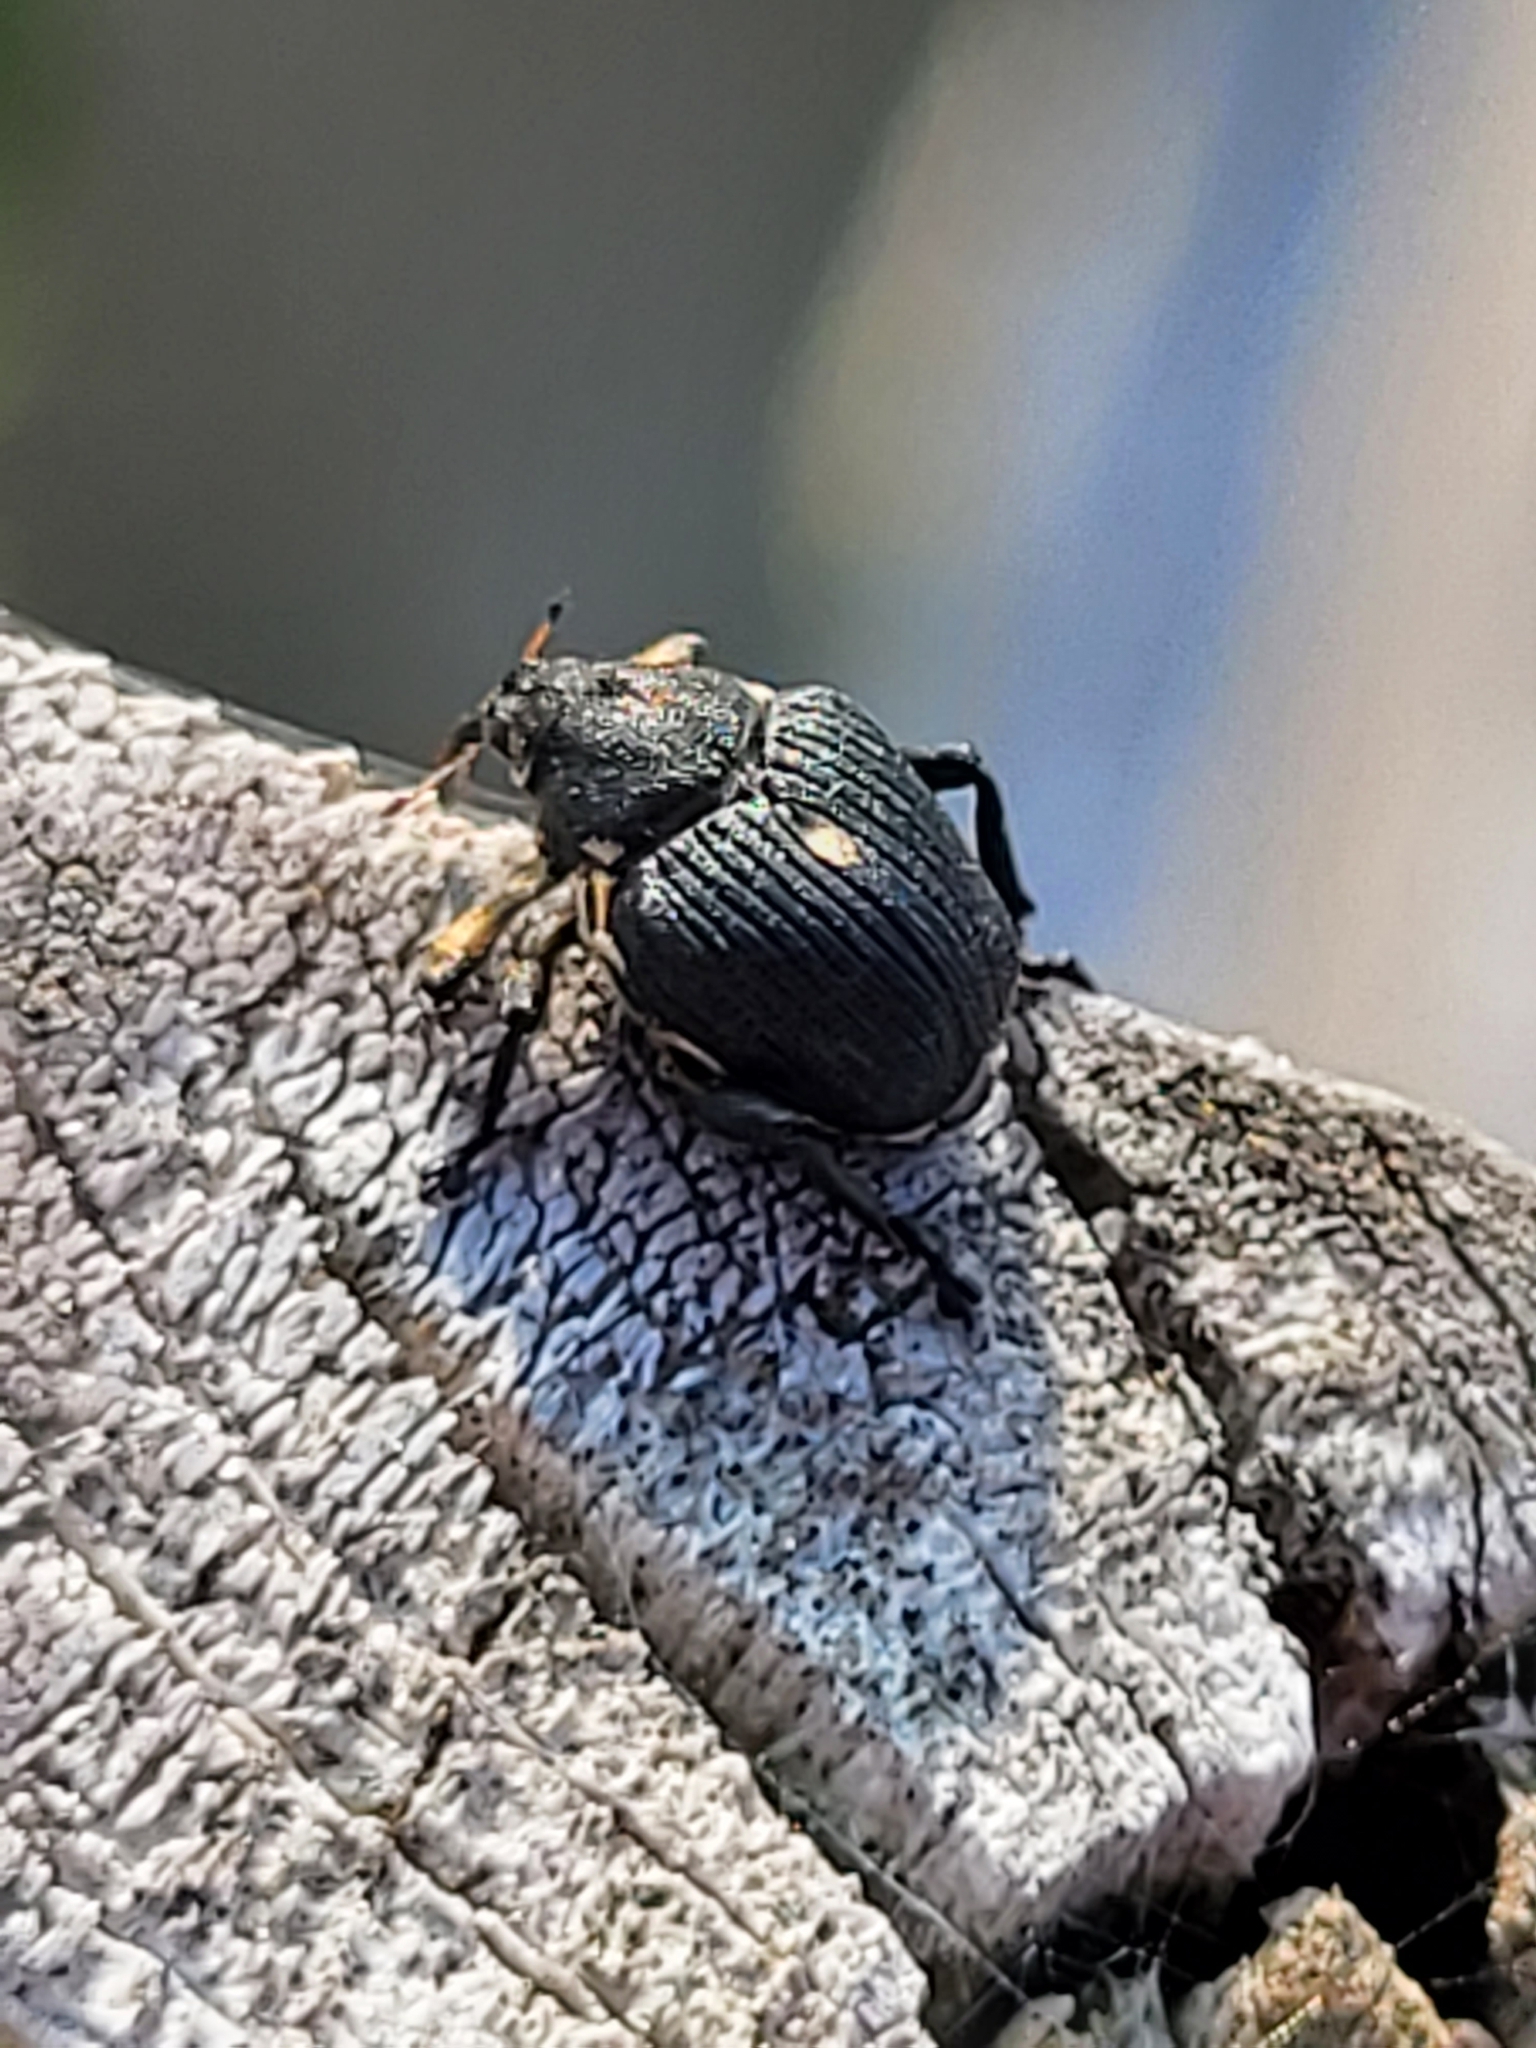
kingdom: Animalia
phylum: Arthropoda
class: Insecta
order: Coleoptera
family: Curculionidae
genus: Mononychus
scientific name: Mononychus punctumalbum
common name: Iris weevil
